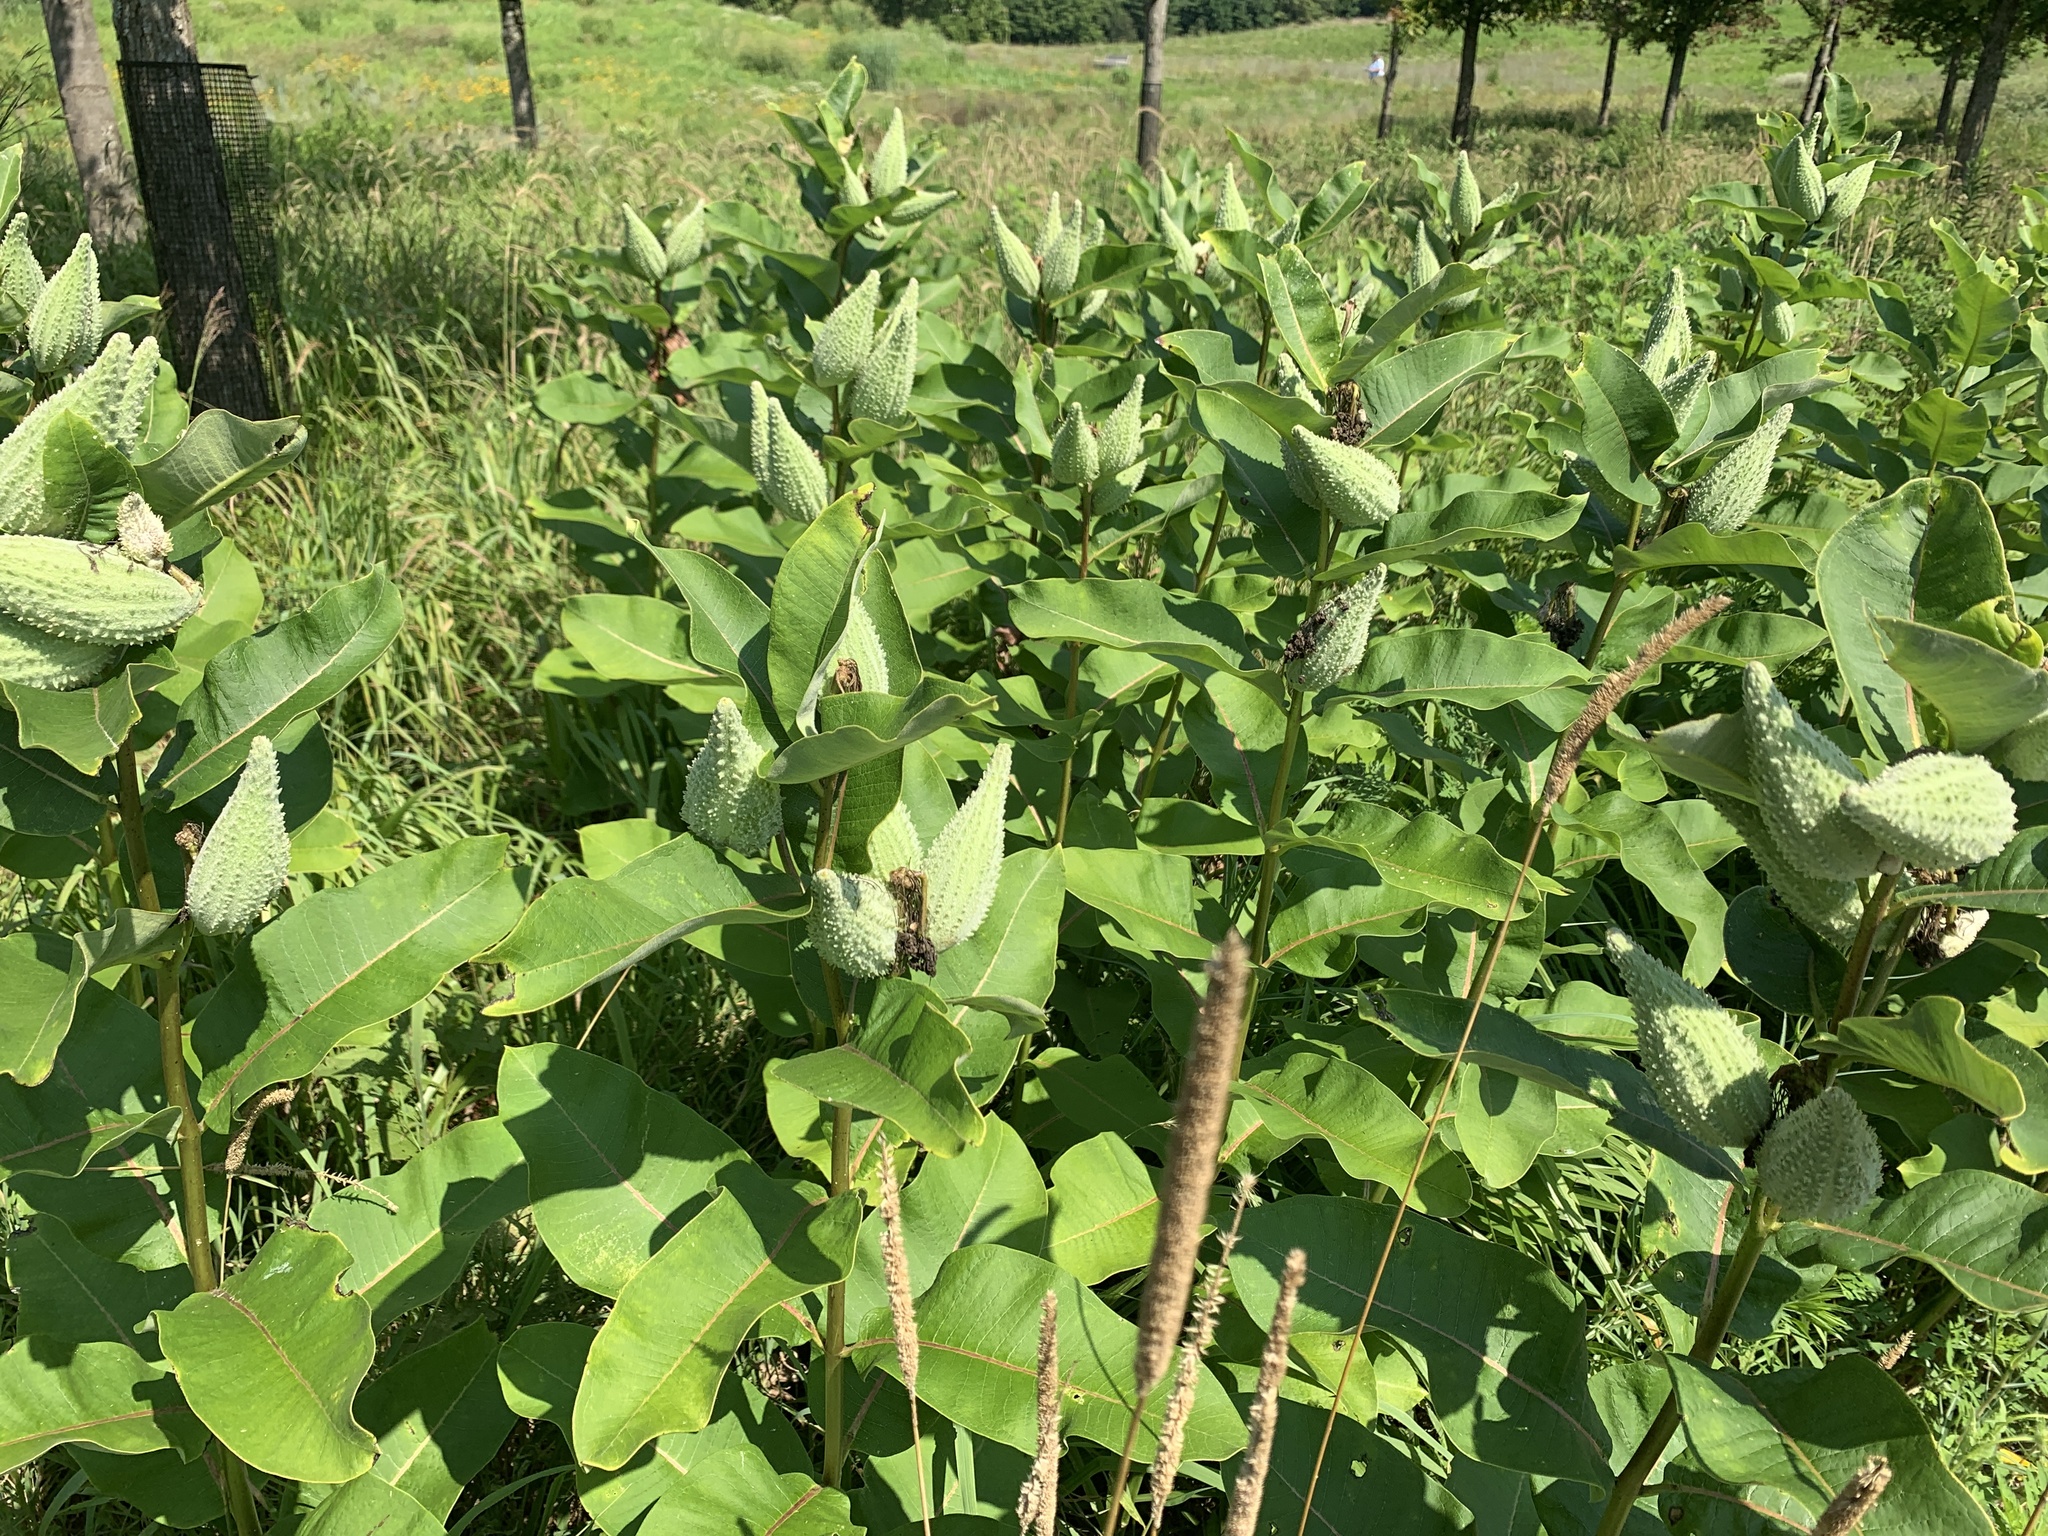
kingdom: Plantae
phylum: Tracheophyta
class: Magnoliopsida
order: Gentianales
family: Apocynaceae
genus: Asclepias
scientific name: Asclepias syriaca
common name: Common milkweed
